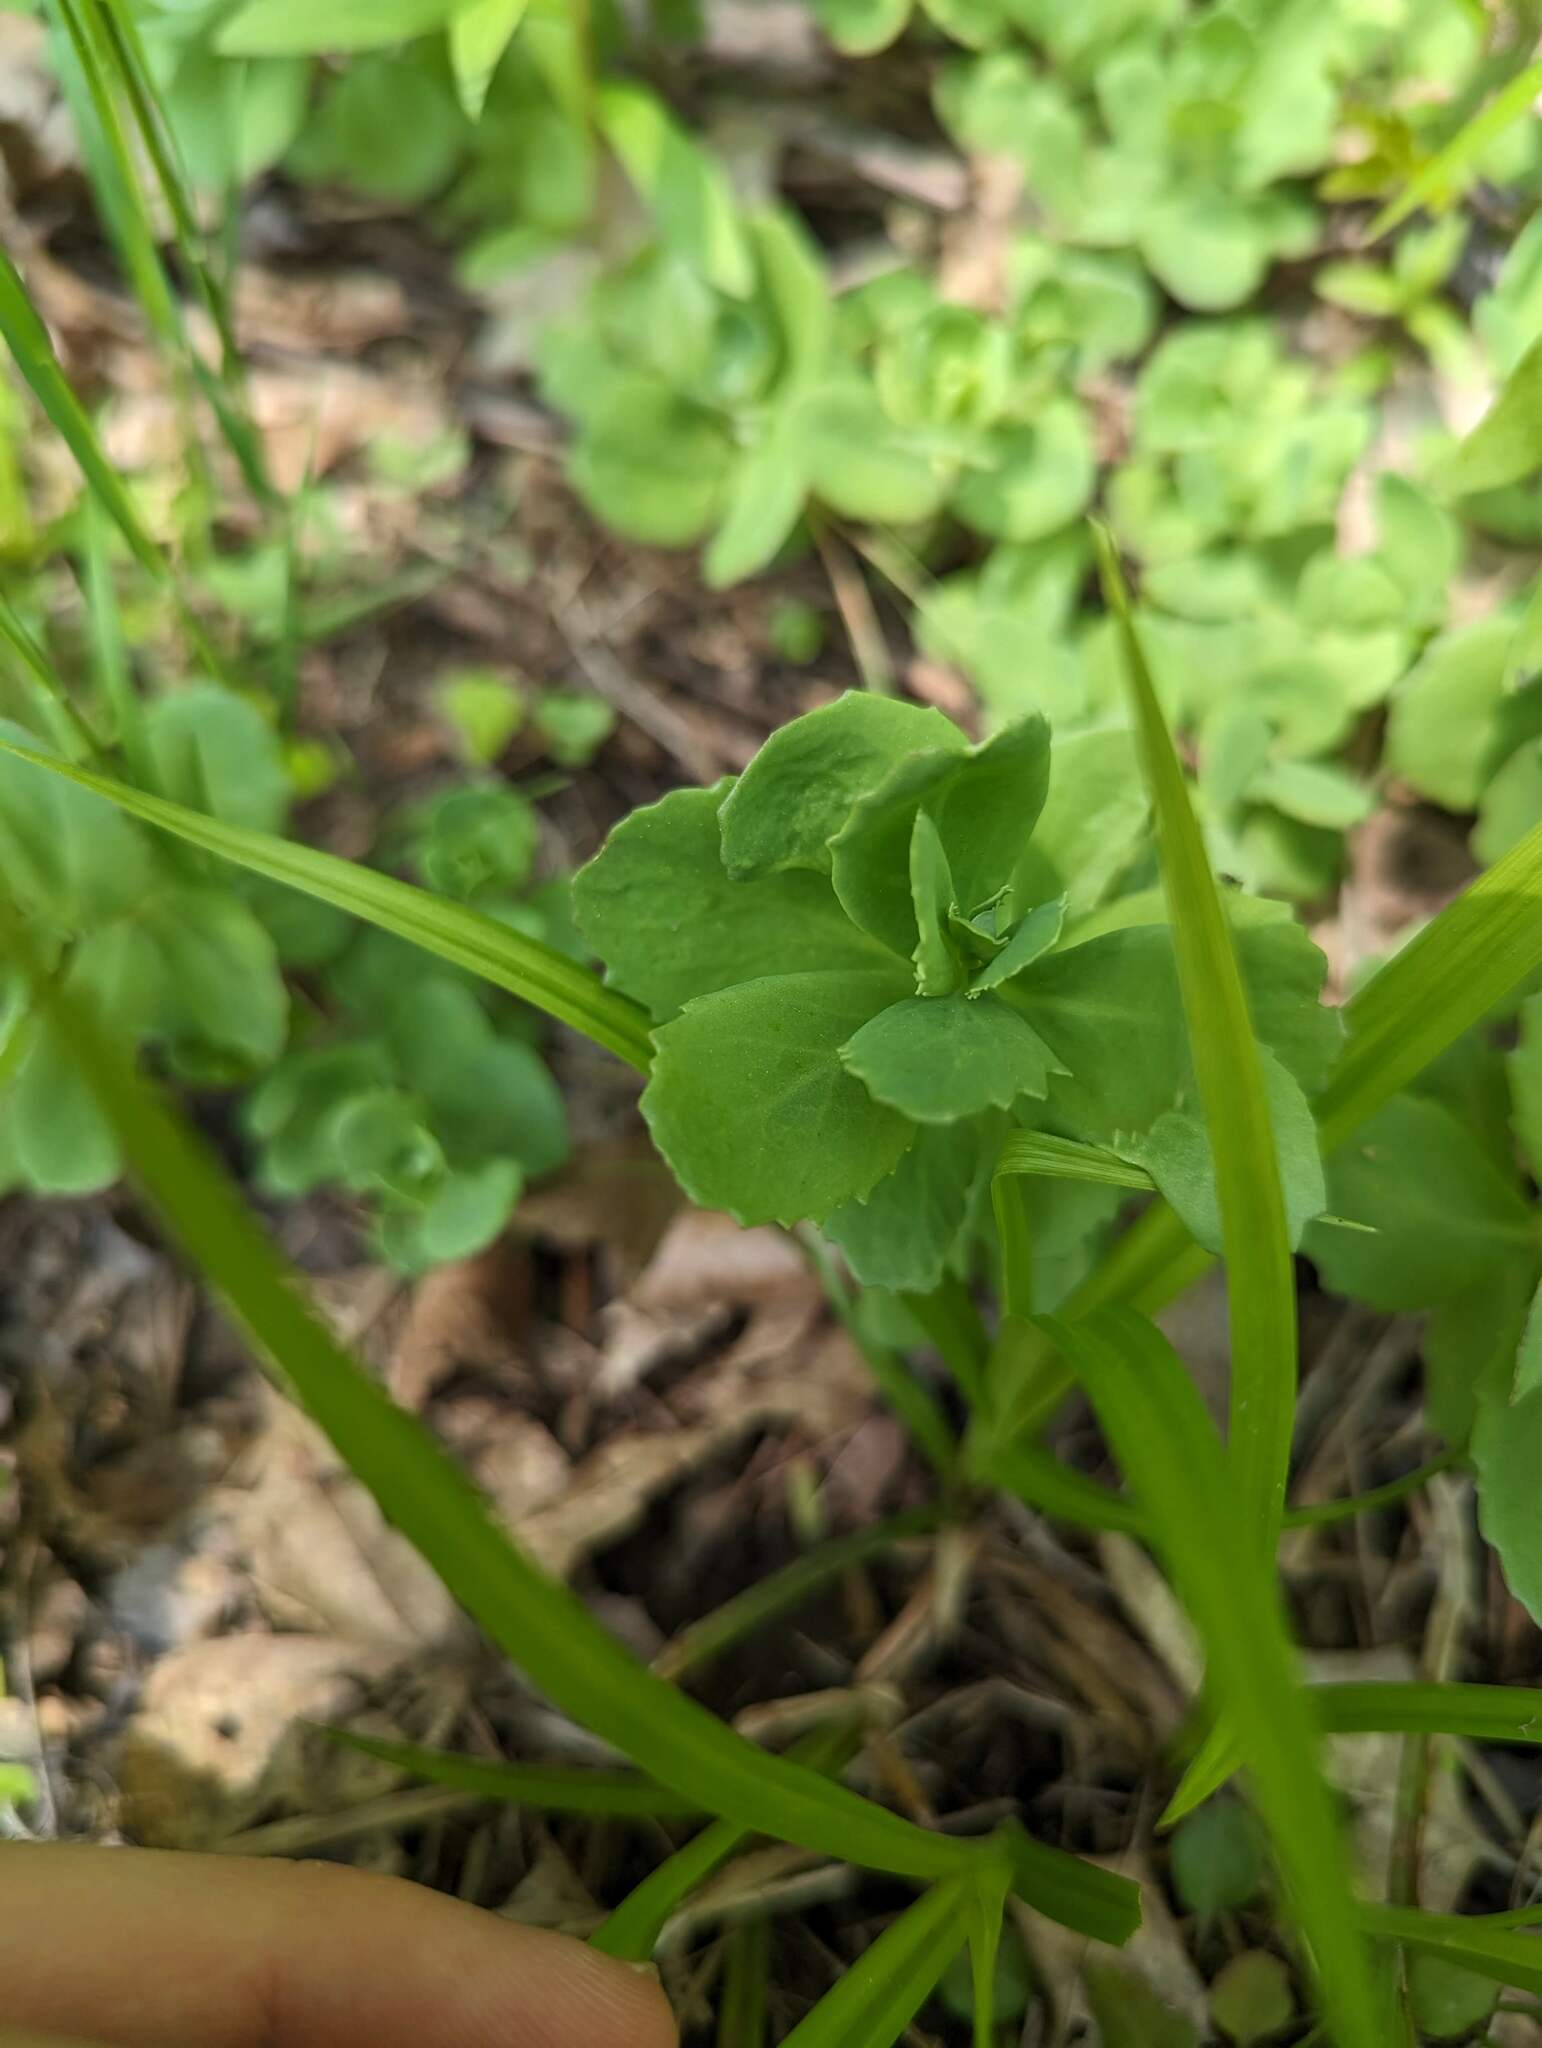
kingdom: Plantae
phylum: Tracheophyta
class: Magnoliopsida
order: Saxifragales
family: Crassulaceae
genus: Hylotelephium
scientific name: Hylotelephium telephium
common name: Live-forever
